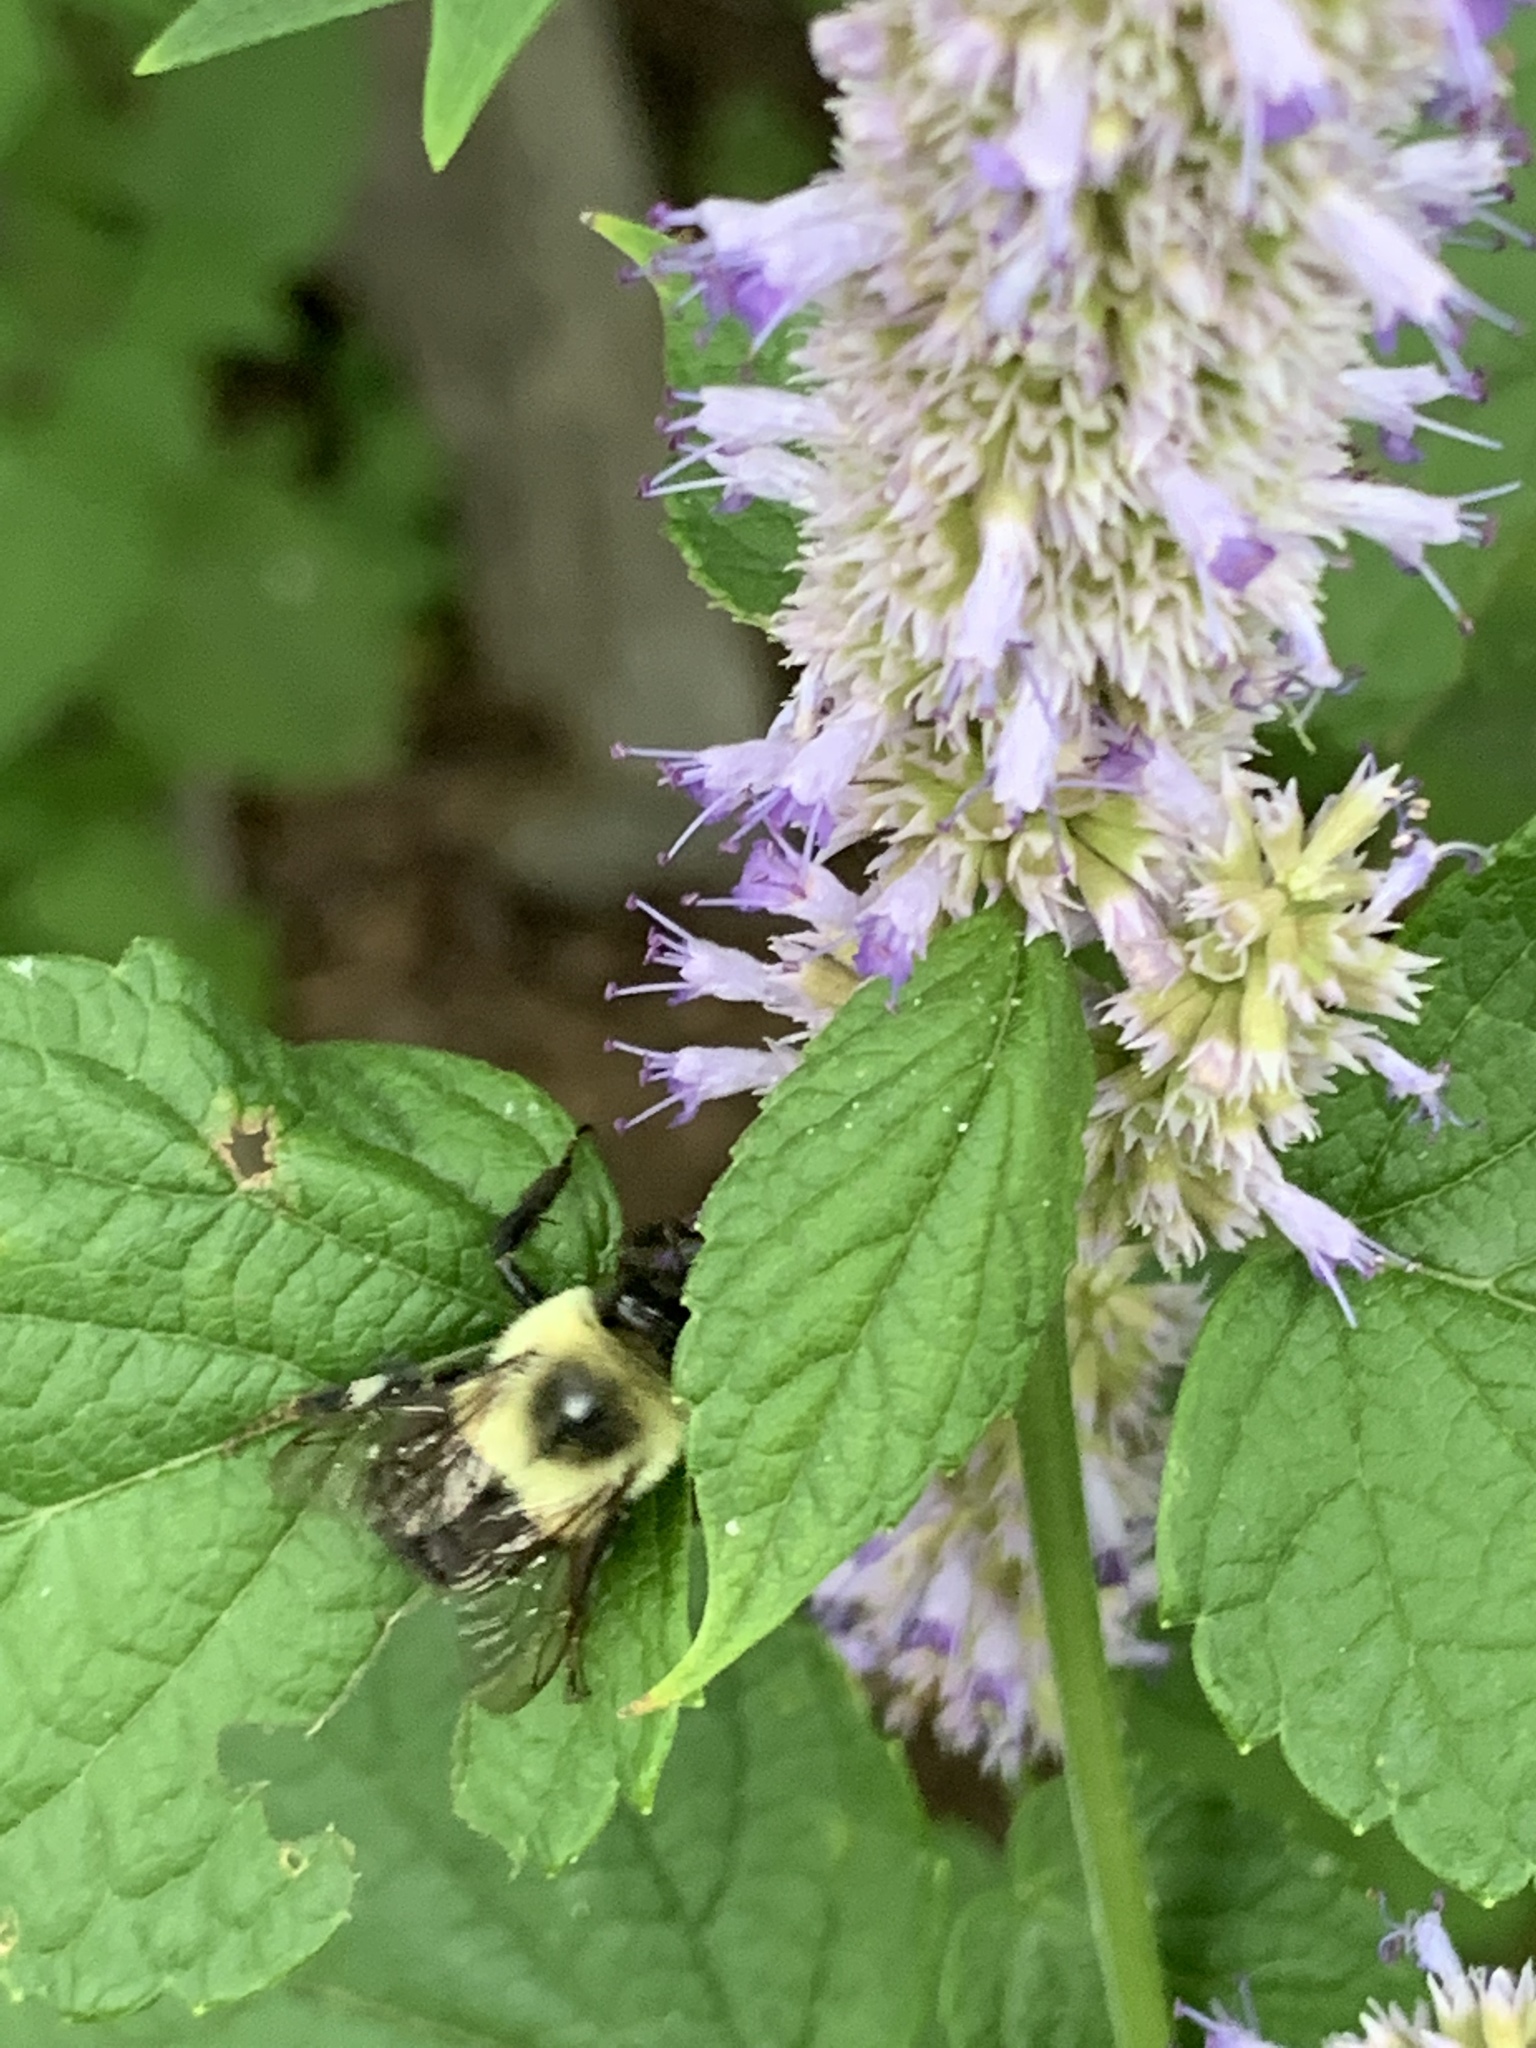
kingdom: Animalia
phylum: Arthropoda
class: Insecta
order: Hymenoptera
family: Apidae
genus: Bombus
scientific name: Bombus impatiens
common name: Common eastern bumble bee
